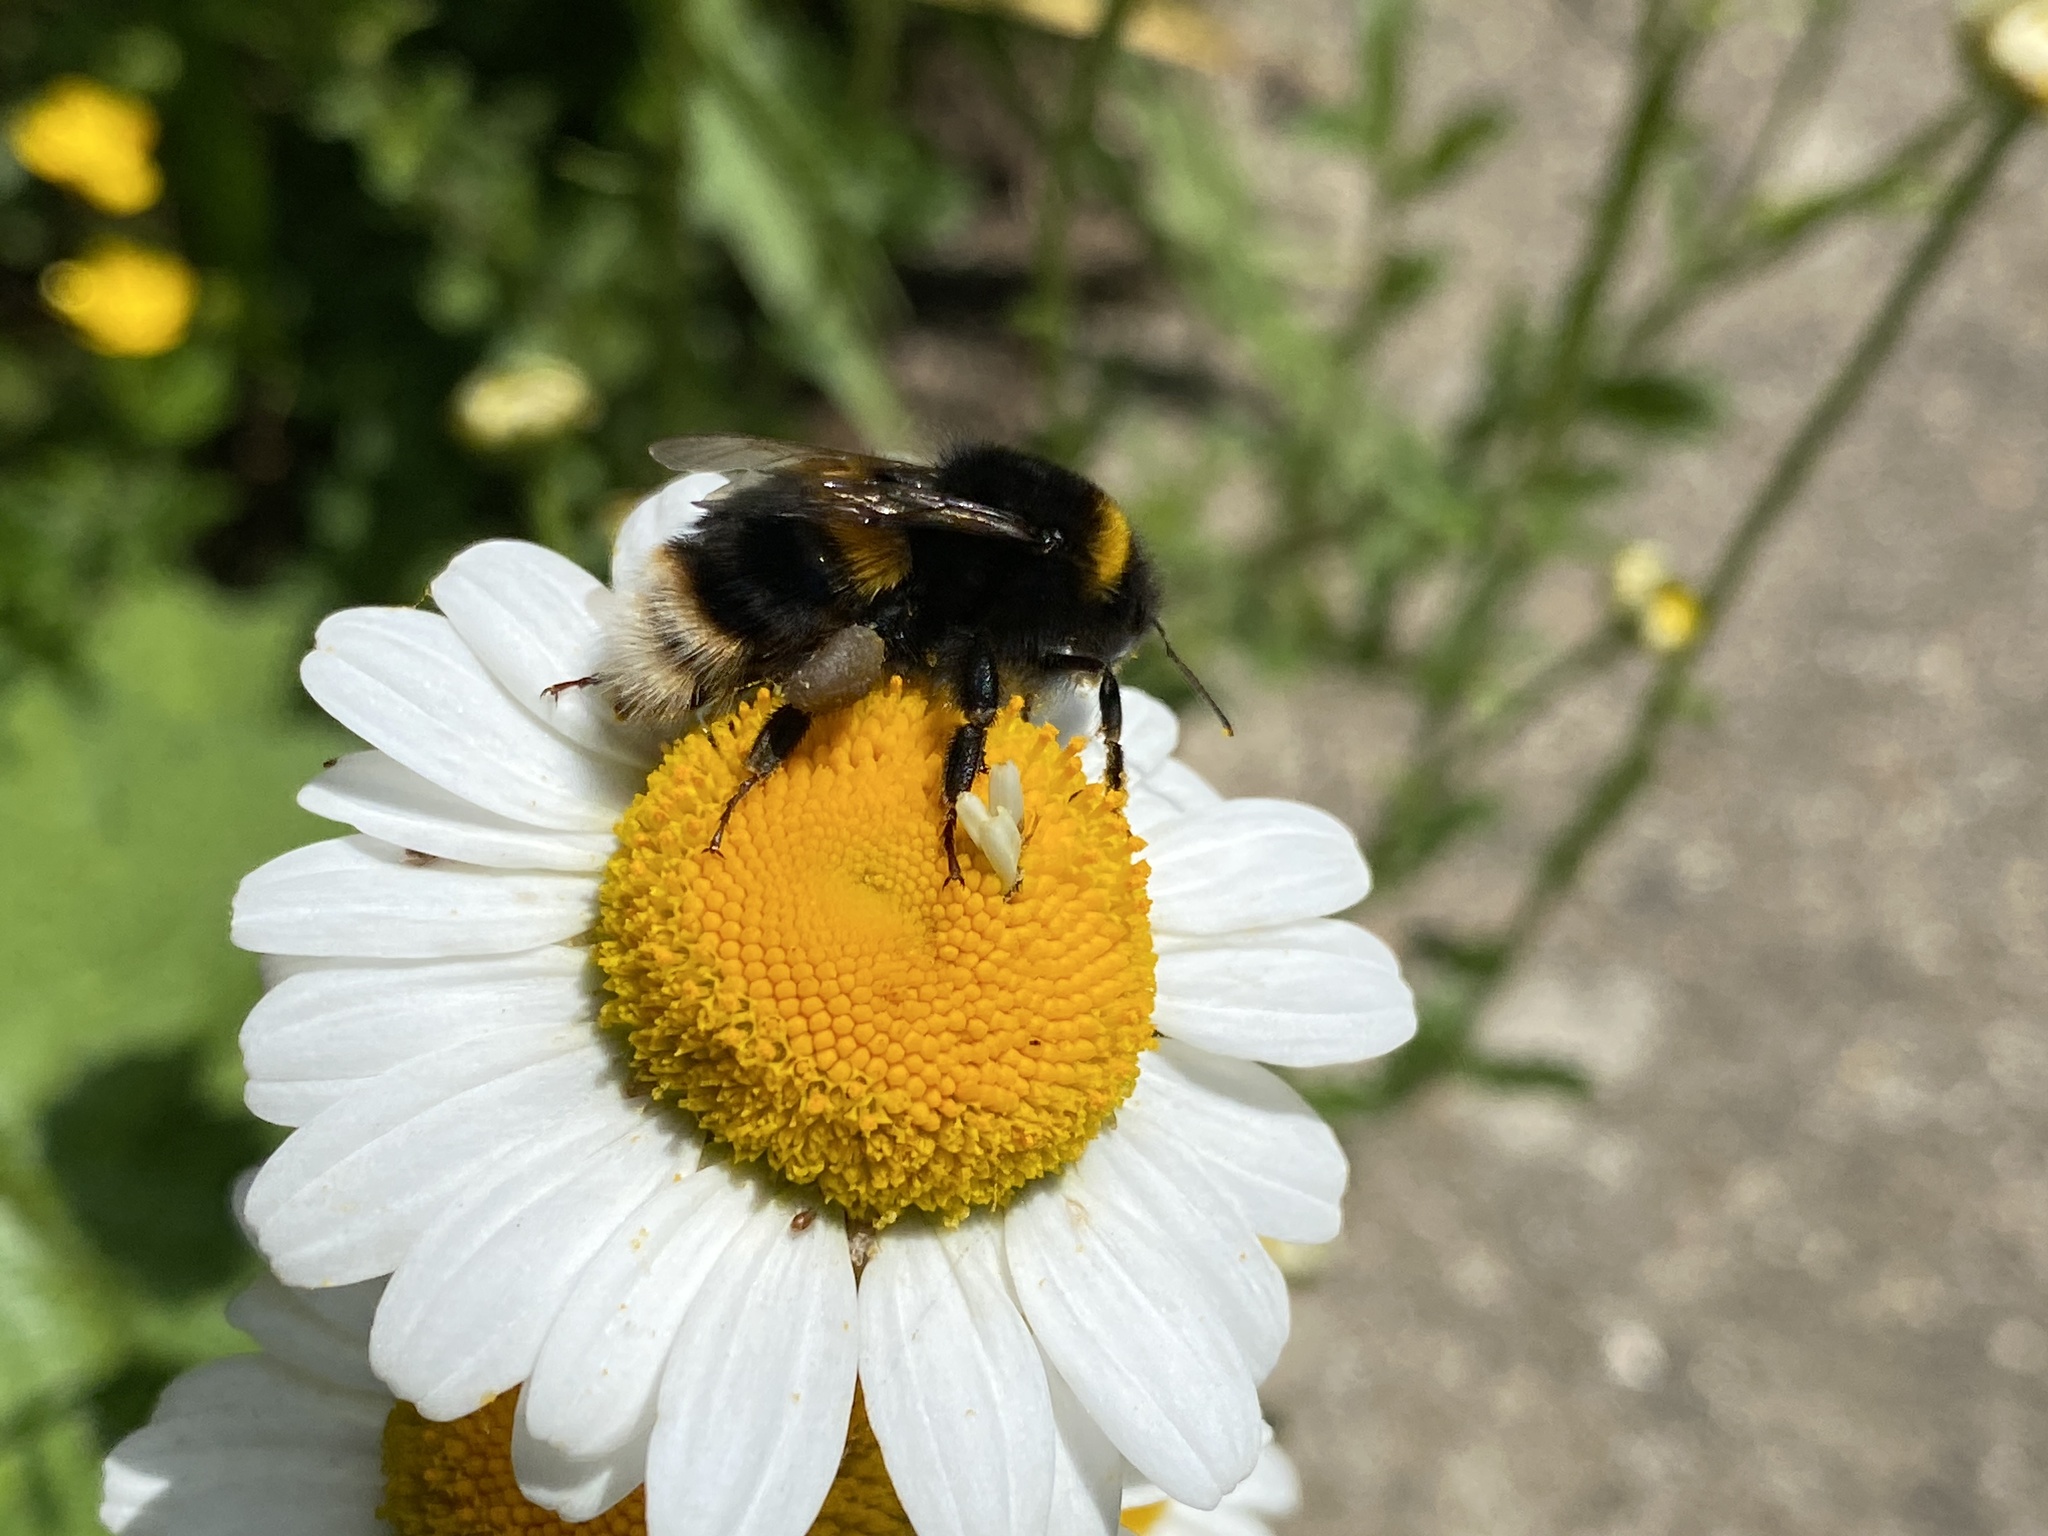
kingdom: Animalia
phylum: Arthropoda
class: Insecta
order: Hymenoptera
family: Apidae
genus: Bombus
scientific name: Bombus terrestris
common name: Buff-tailed bumblebee
